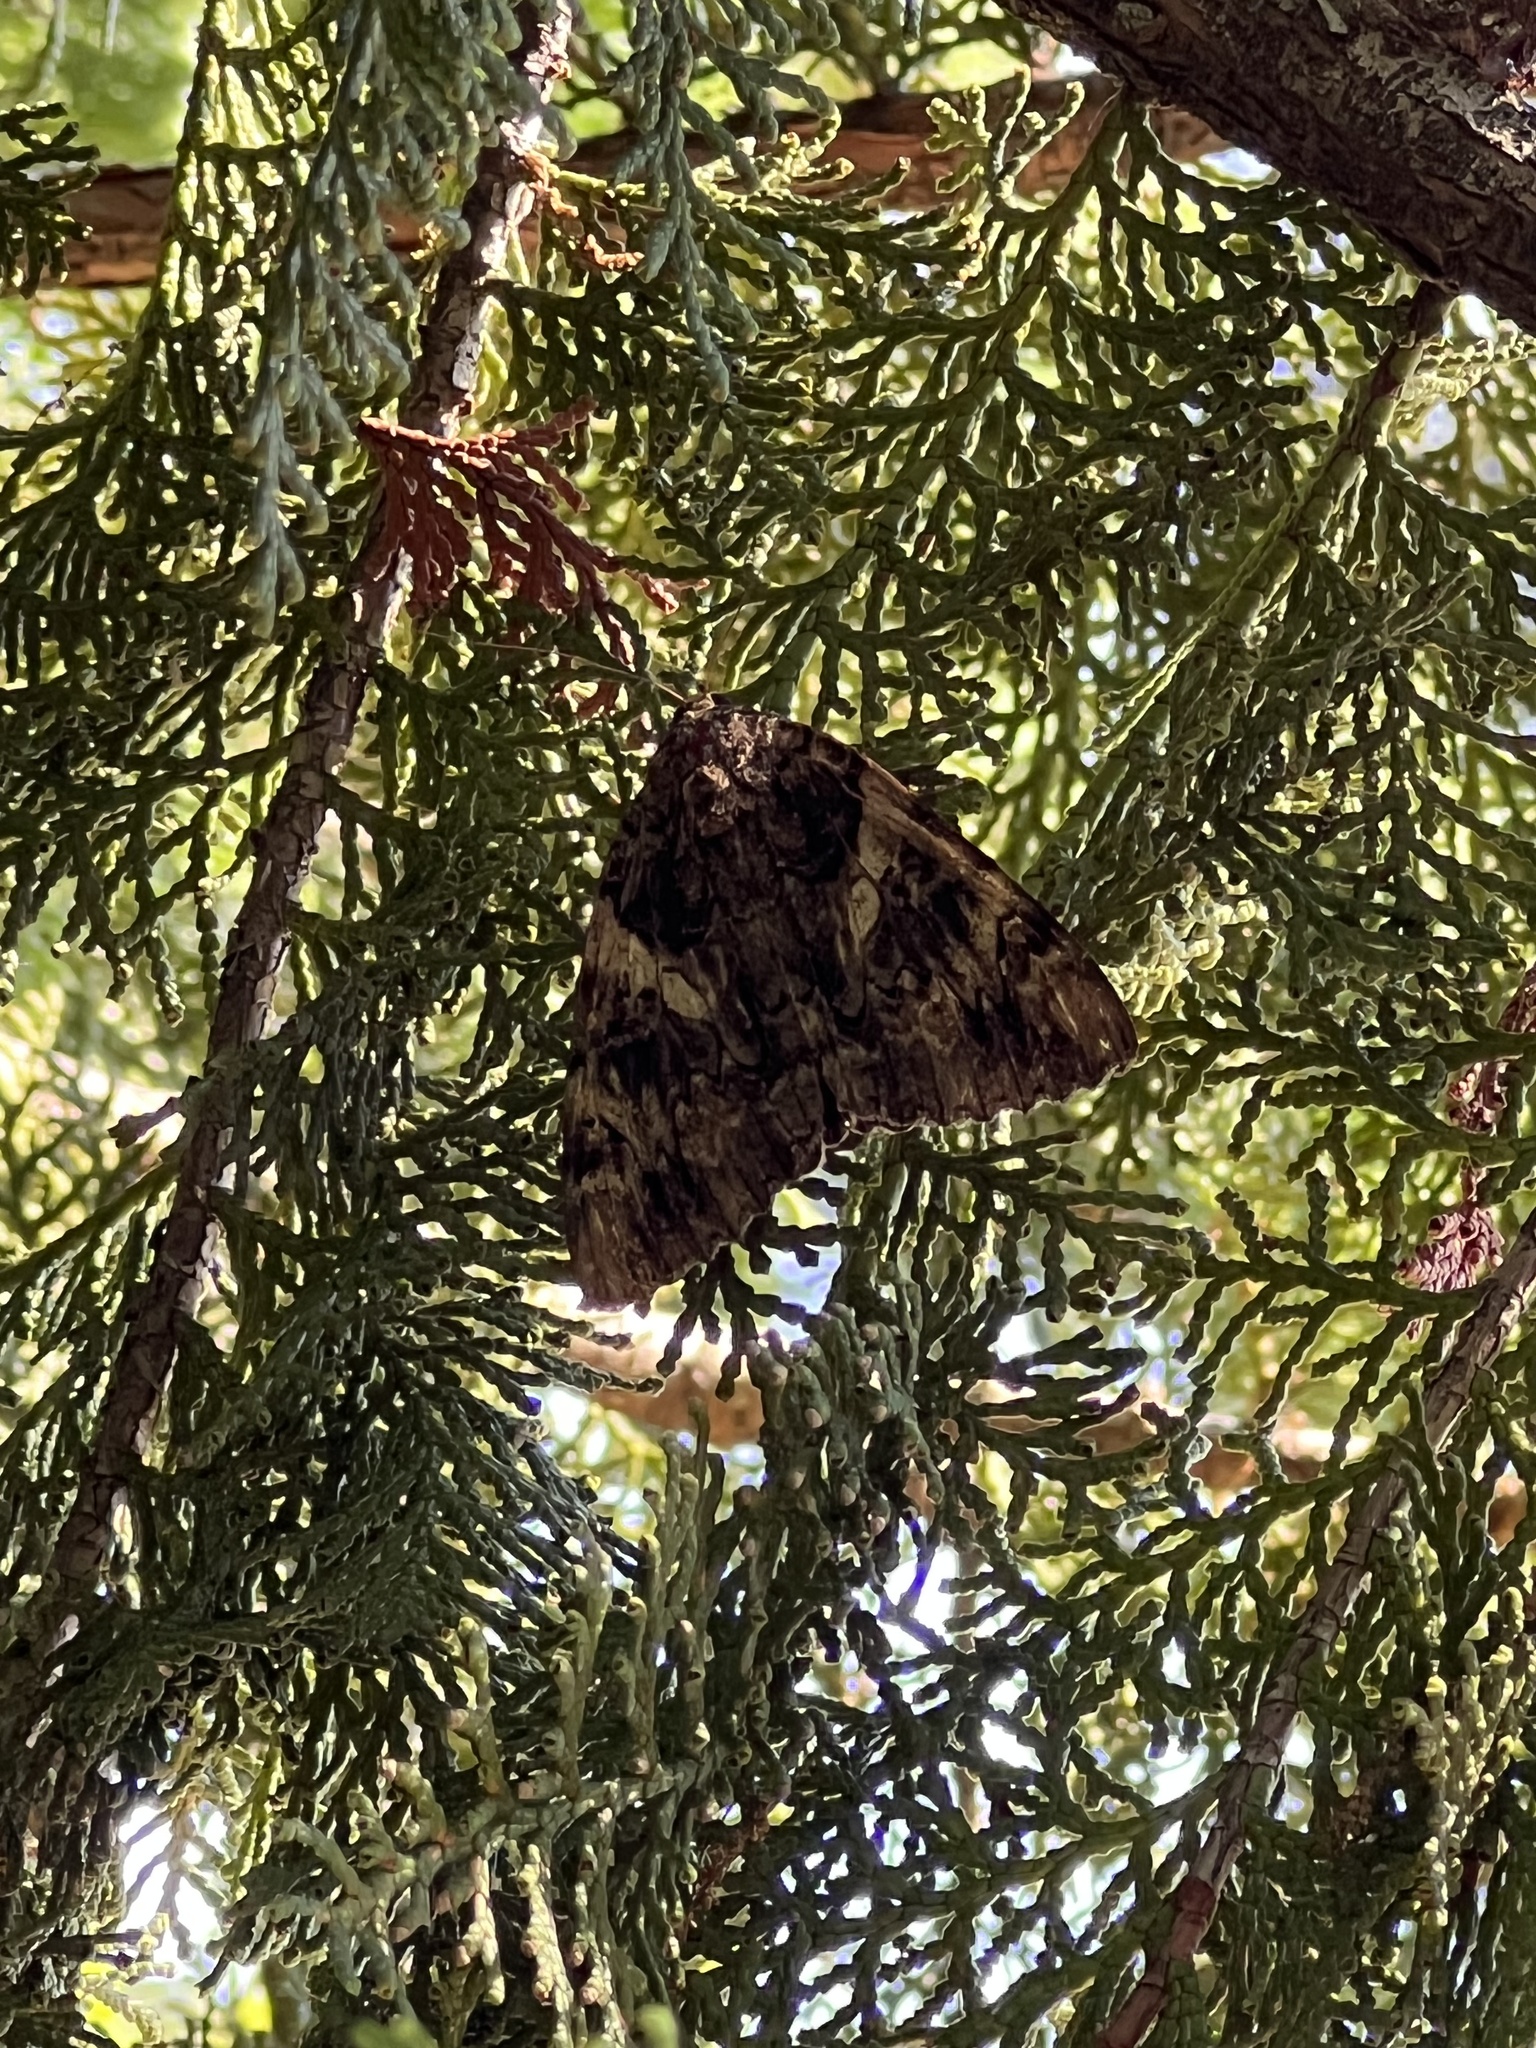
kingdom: Animalia
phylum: Arthropoda
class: Insecta
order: Lepidoptera
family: Erebidae
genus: Catocala
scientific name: Catocala piatrix
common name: The penitent underwing
